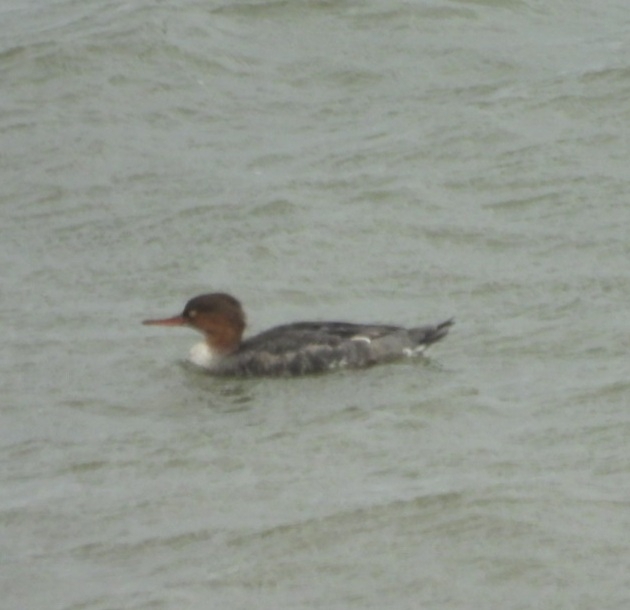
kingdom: Animalia
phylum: Chordata
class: Aves
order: Anseriformes
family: Anatidae
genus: Mergus
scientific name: Mergus serrator
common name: Red-breasted merganser
